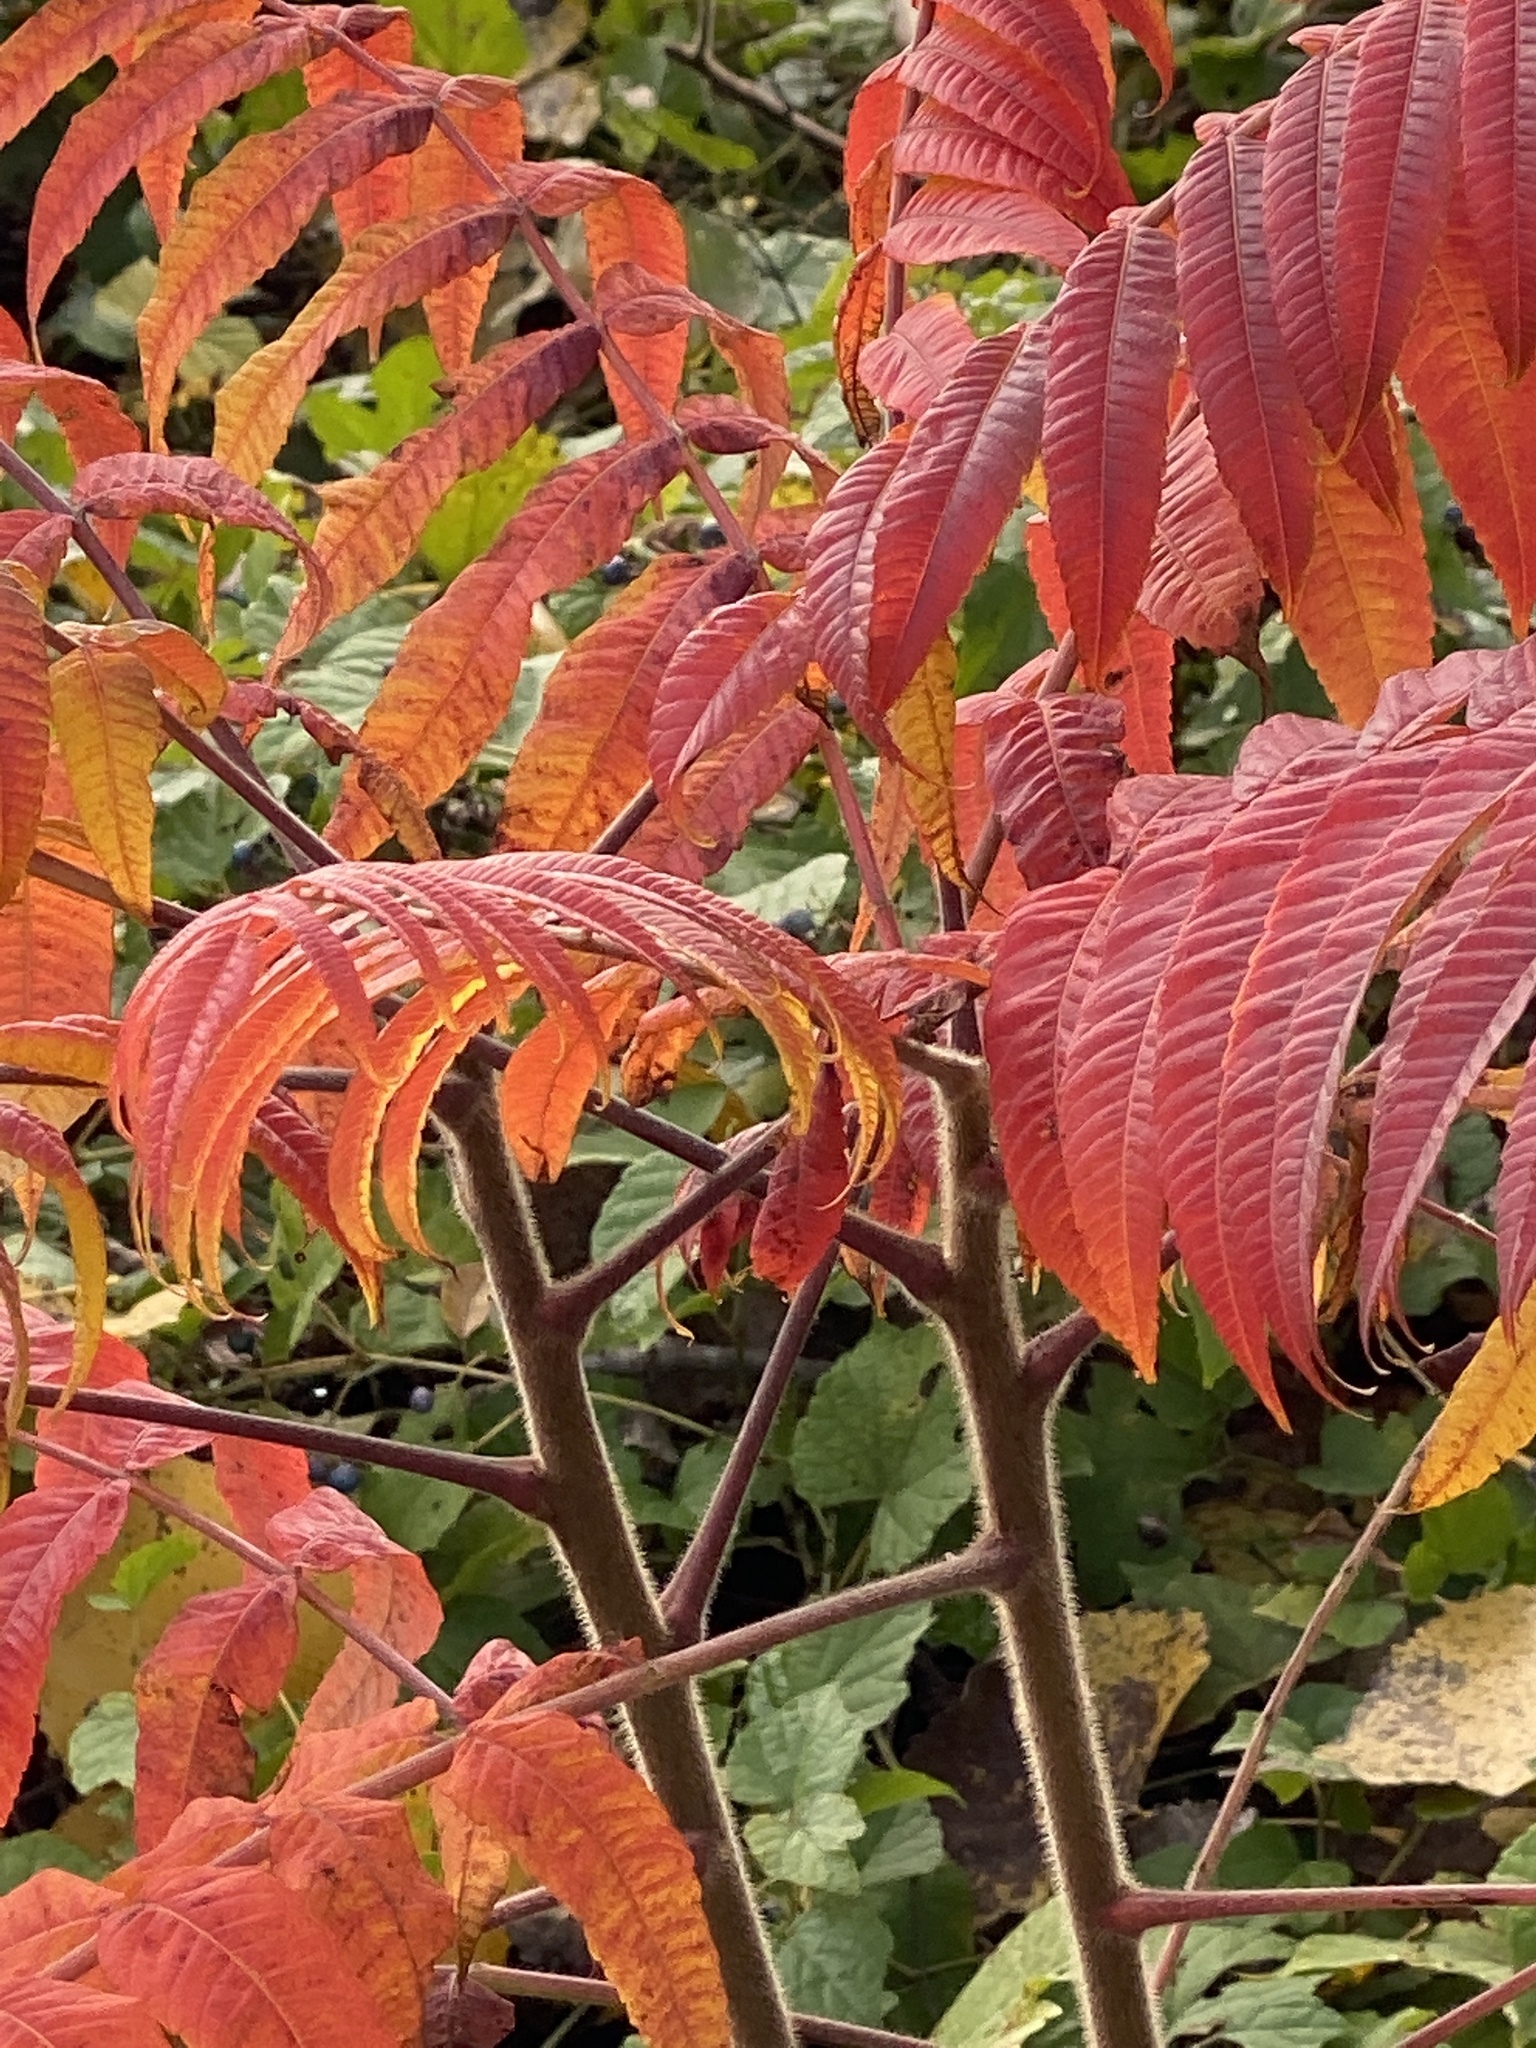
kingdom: Plantae
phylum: Tracheophyta
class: Magnoliopsida
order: Sapindales
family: Anacardiaceae
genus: Rhus
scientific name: Rhus typhina
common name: Staghorn sumac
